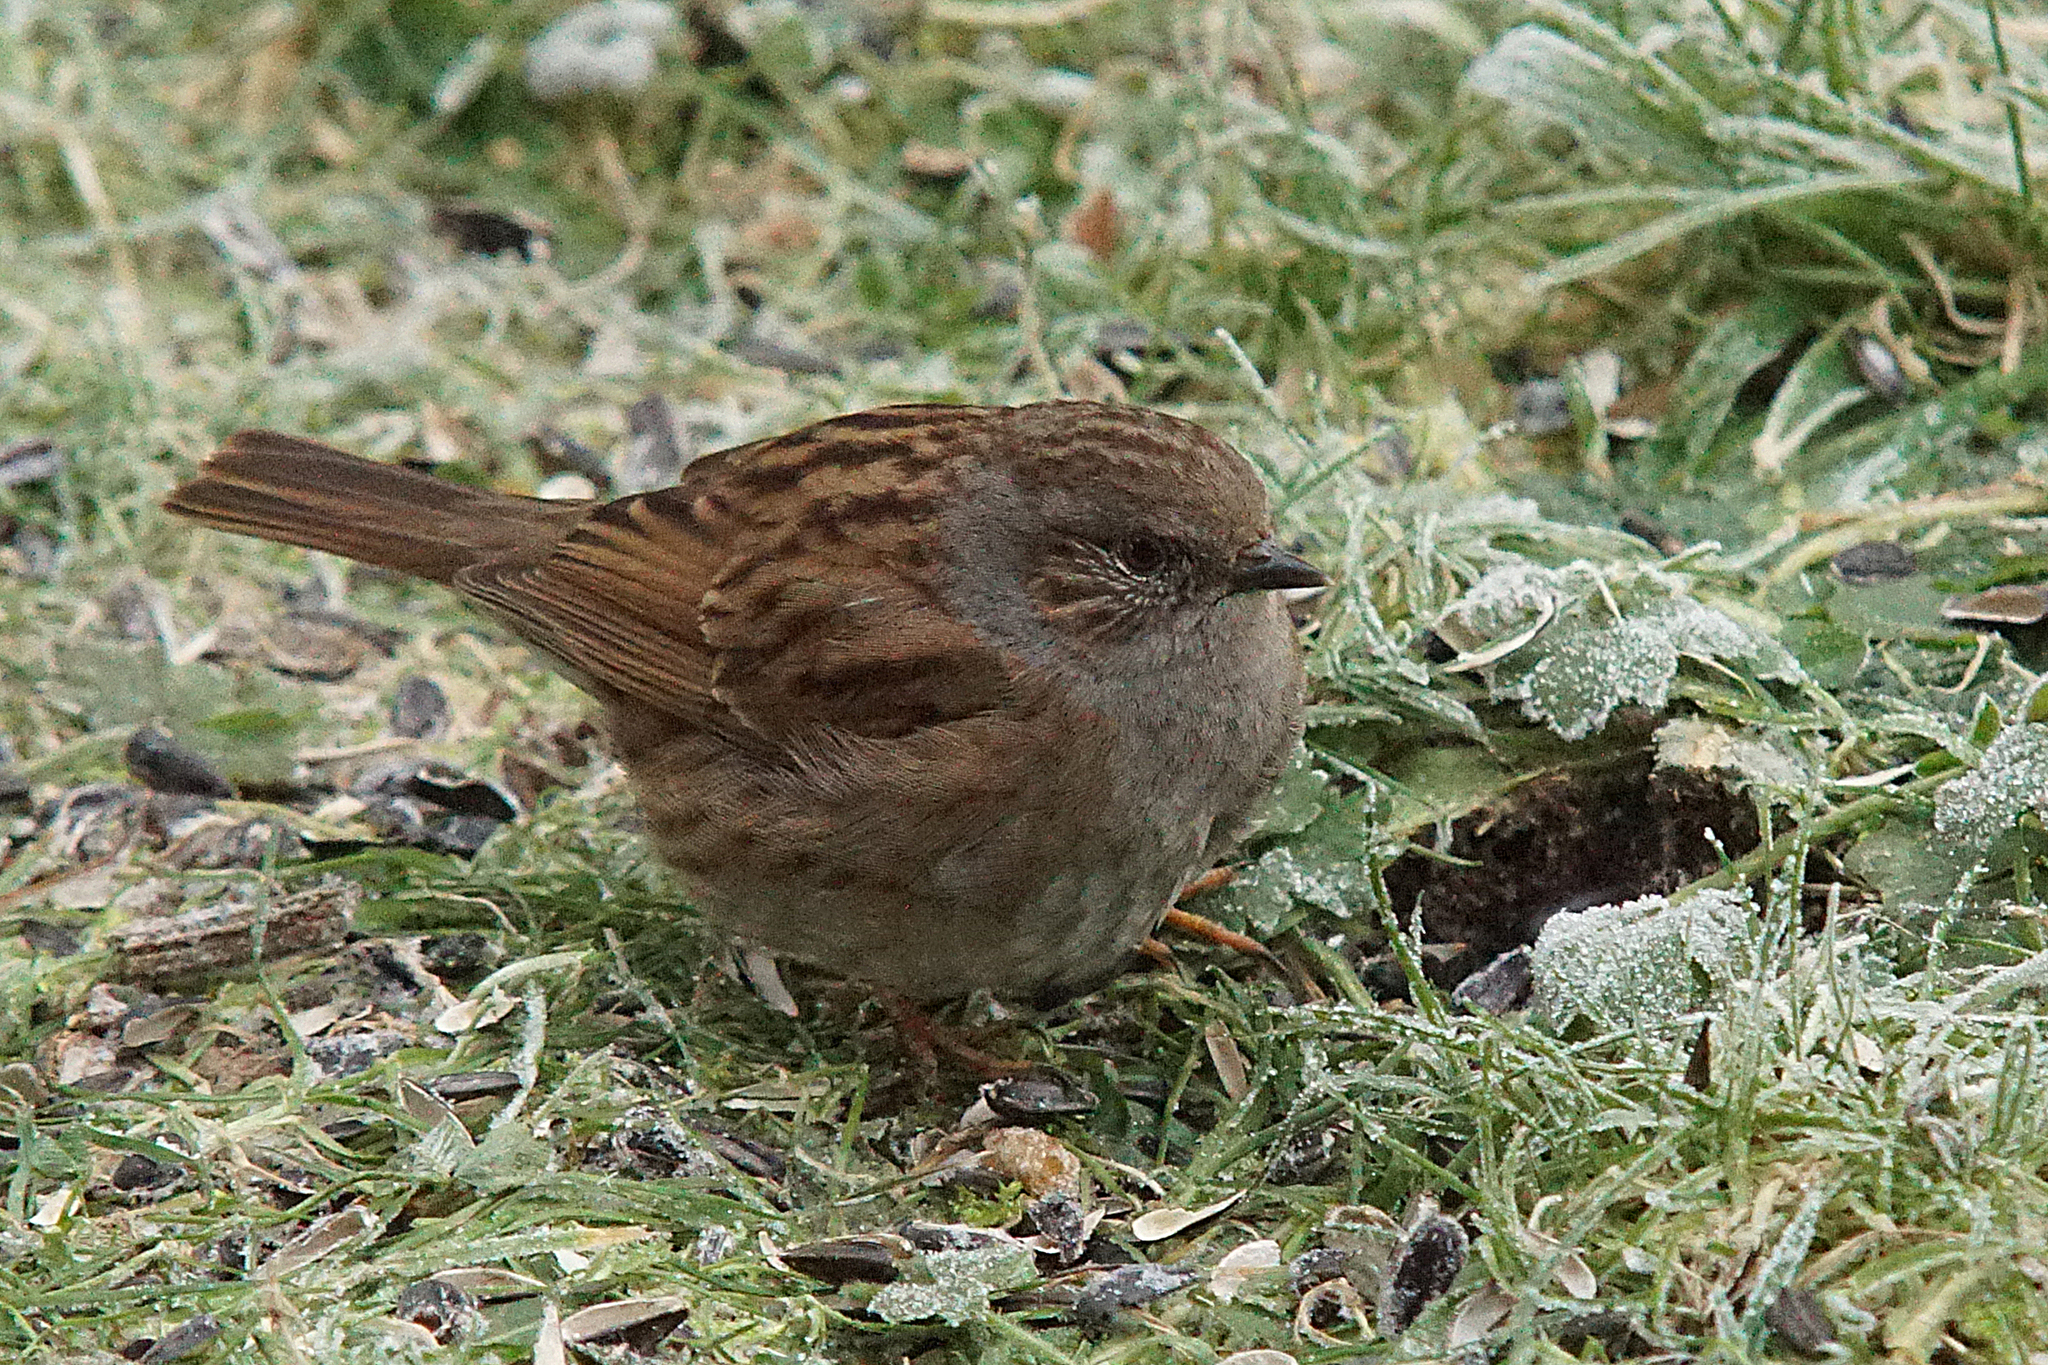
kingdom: Animalia
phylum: Chordata
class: Aves
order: Passeriformes
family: Prunellidae
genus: Prunella
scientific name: Prunella modularis
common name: Dunnock
